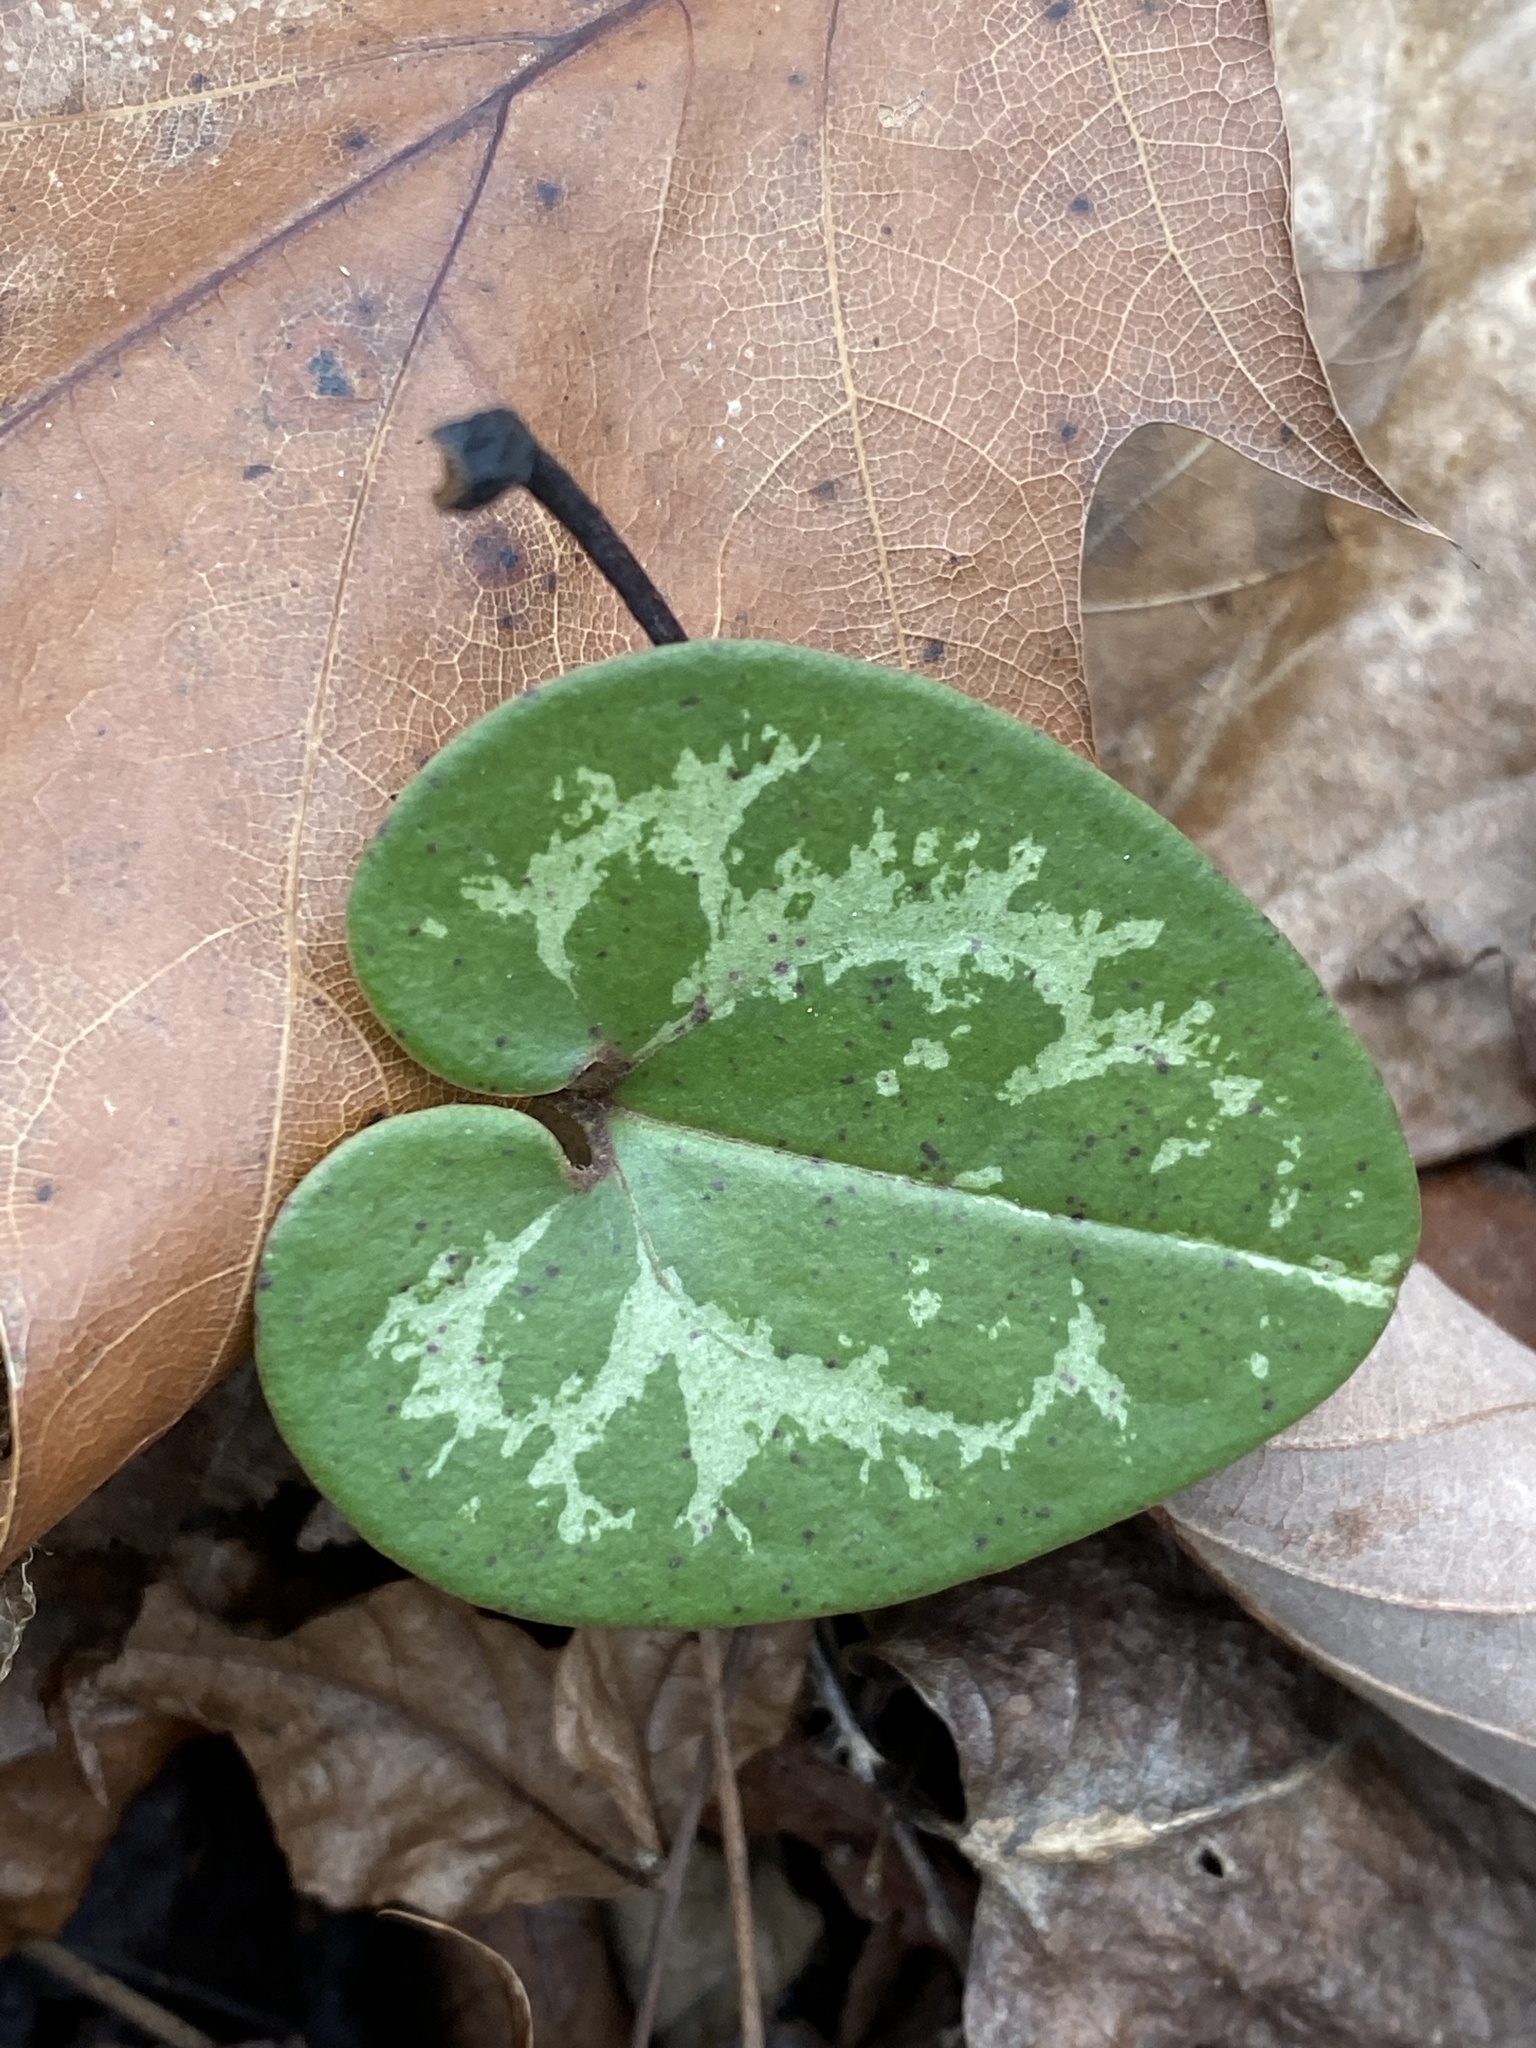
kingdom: Plantae
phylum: Tracheophyta
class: Magnoliopsida
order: Piperales
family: Aristolochiaceae
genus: Hexastylis
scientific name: Hexastylis lewisii
